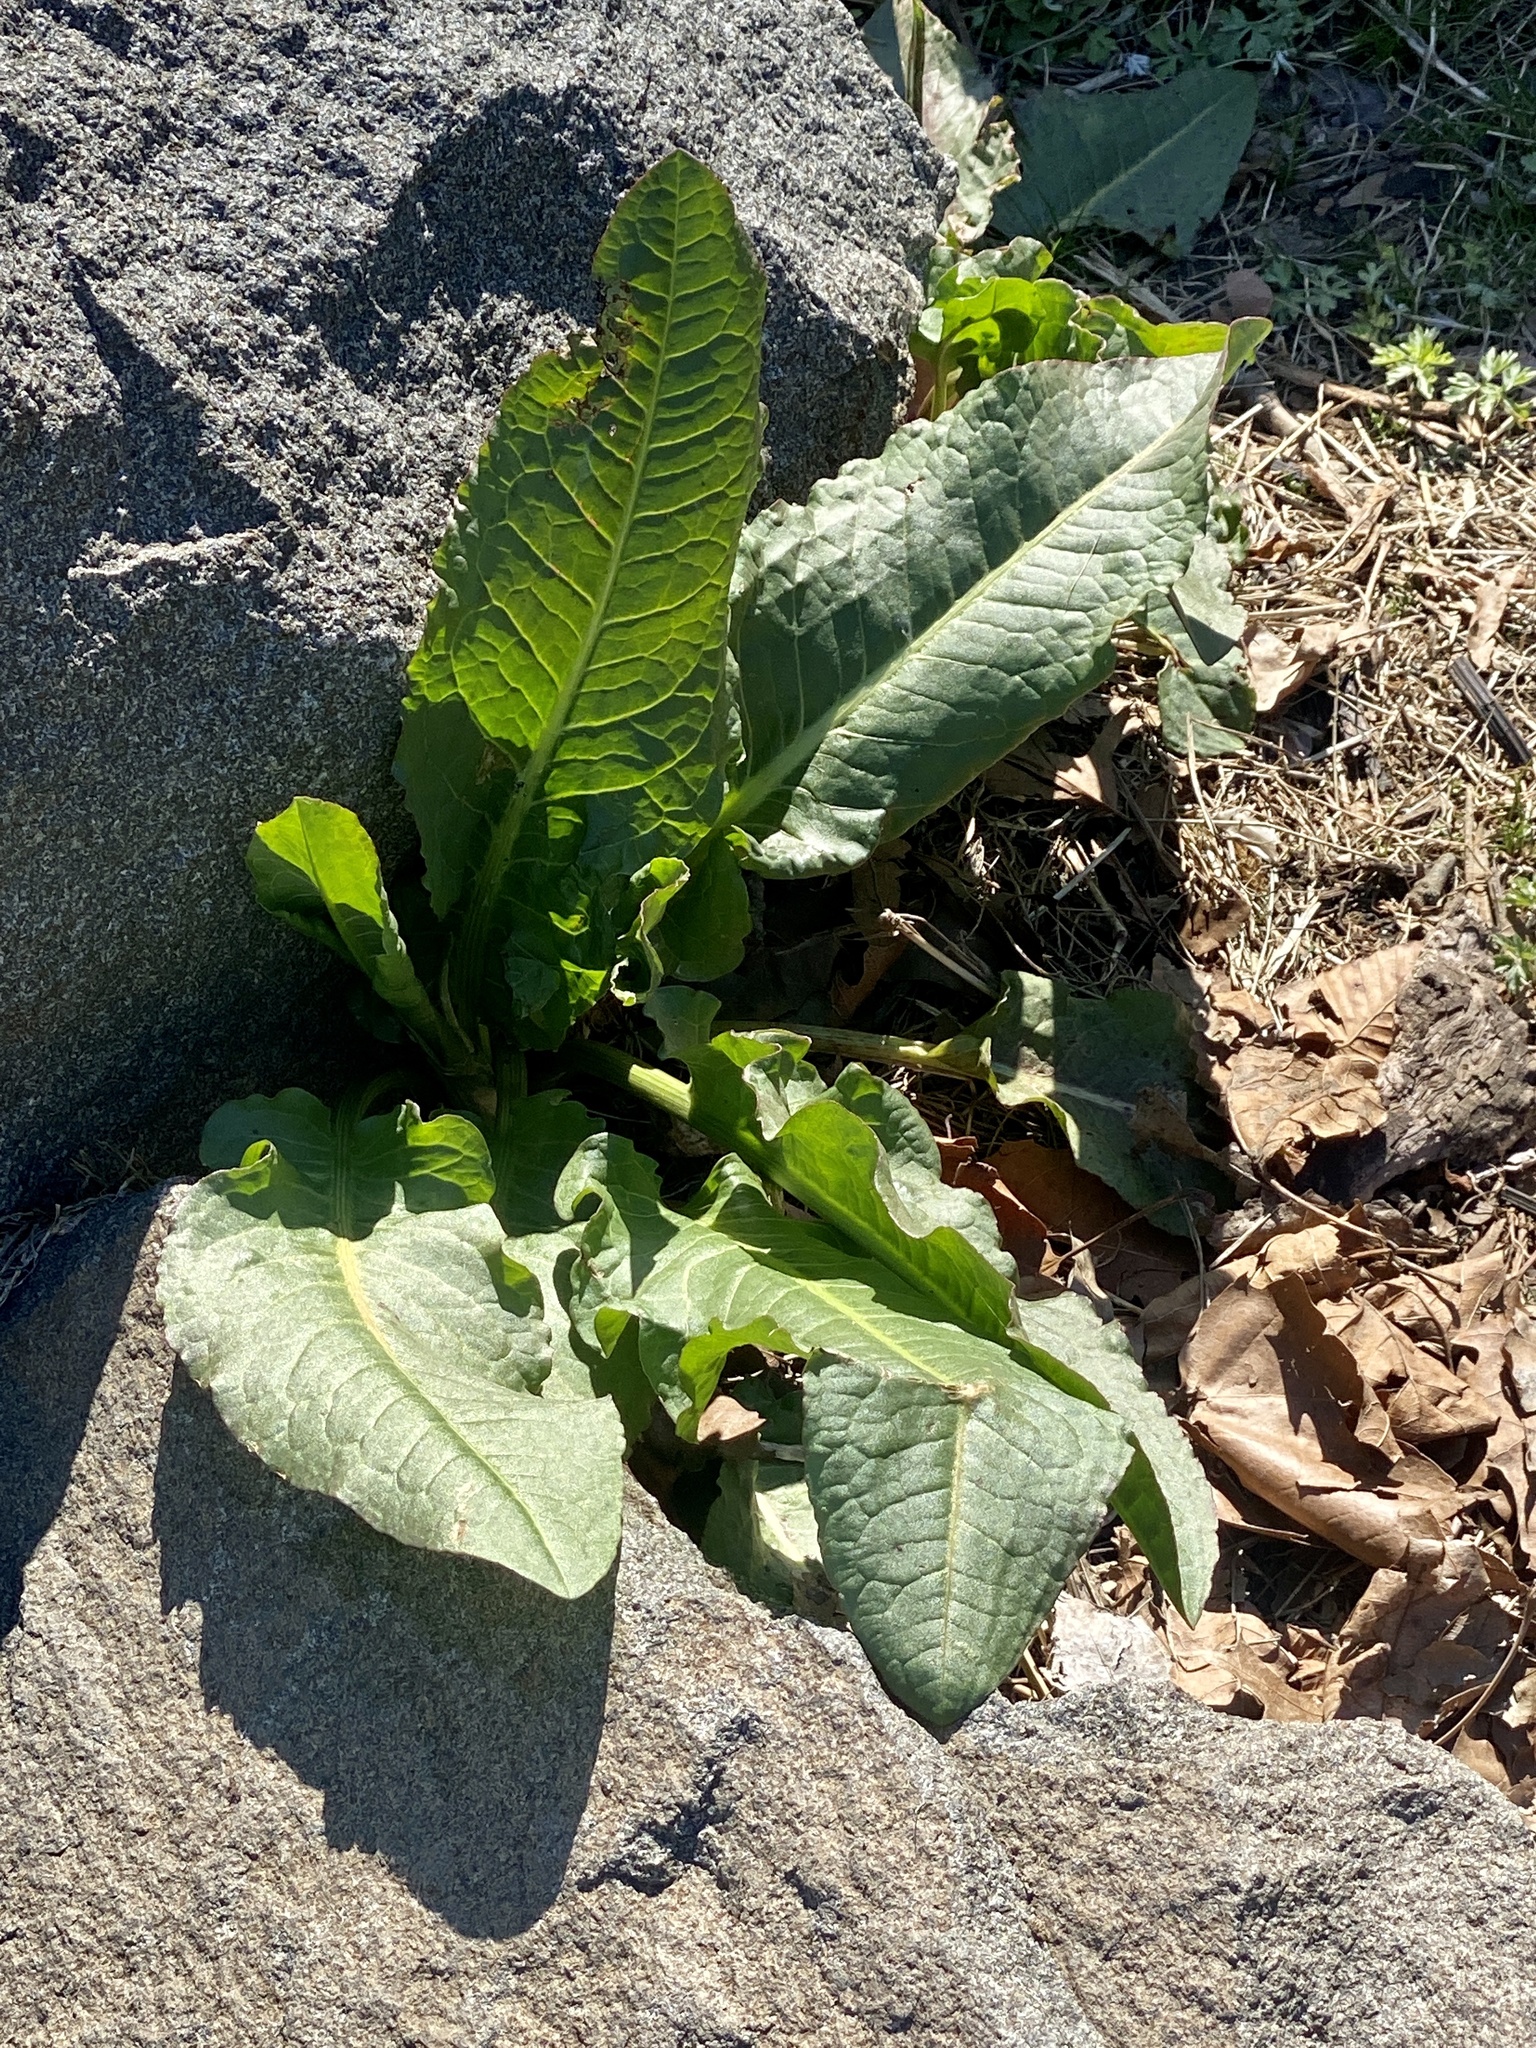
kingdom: Plantae
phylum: Tracheophyta
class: Magnoliopsida
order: Caryophyllales
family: Polygonaceae
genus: Rumex
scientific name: Rumex obtusifolius
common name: Bitter dock
